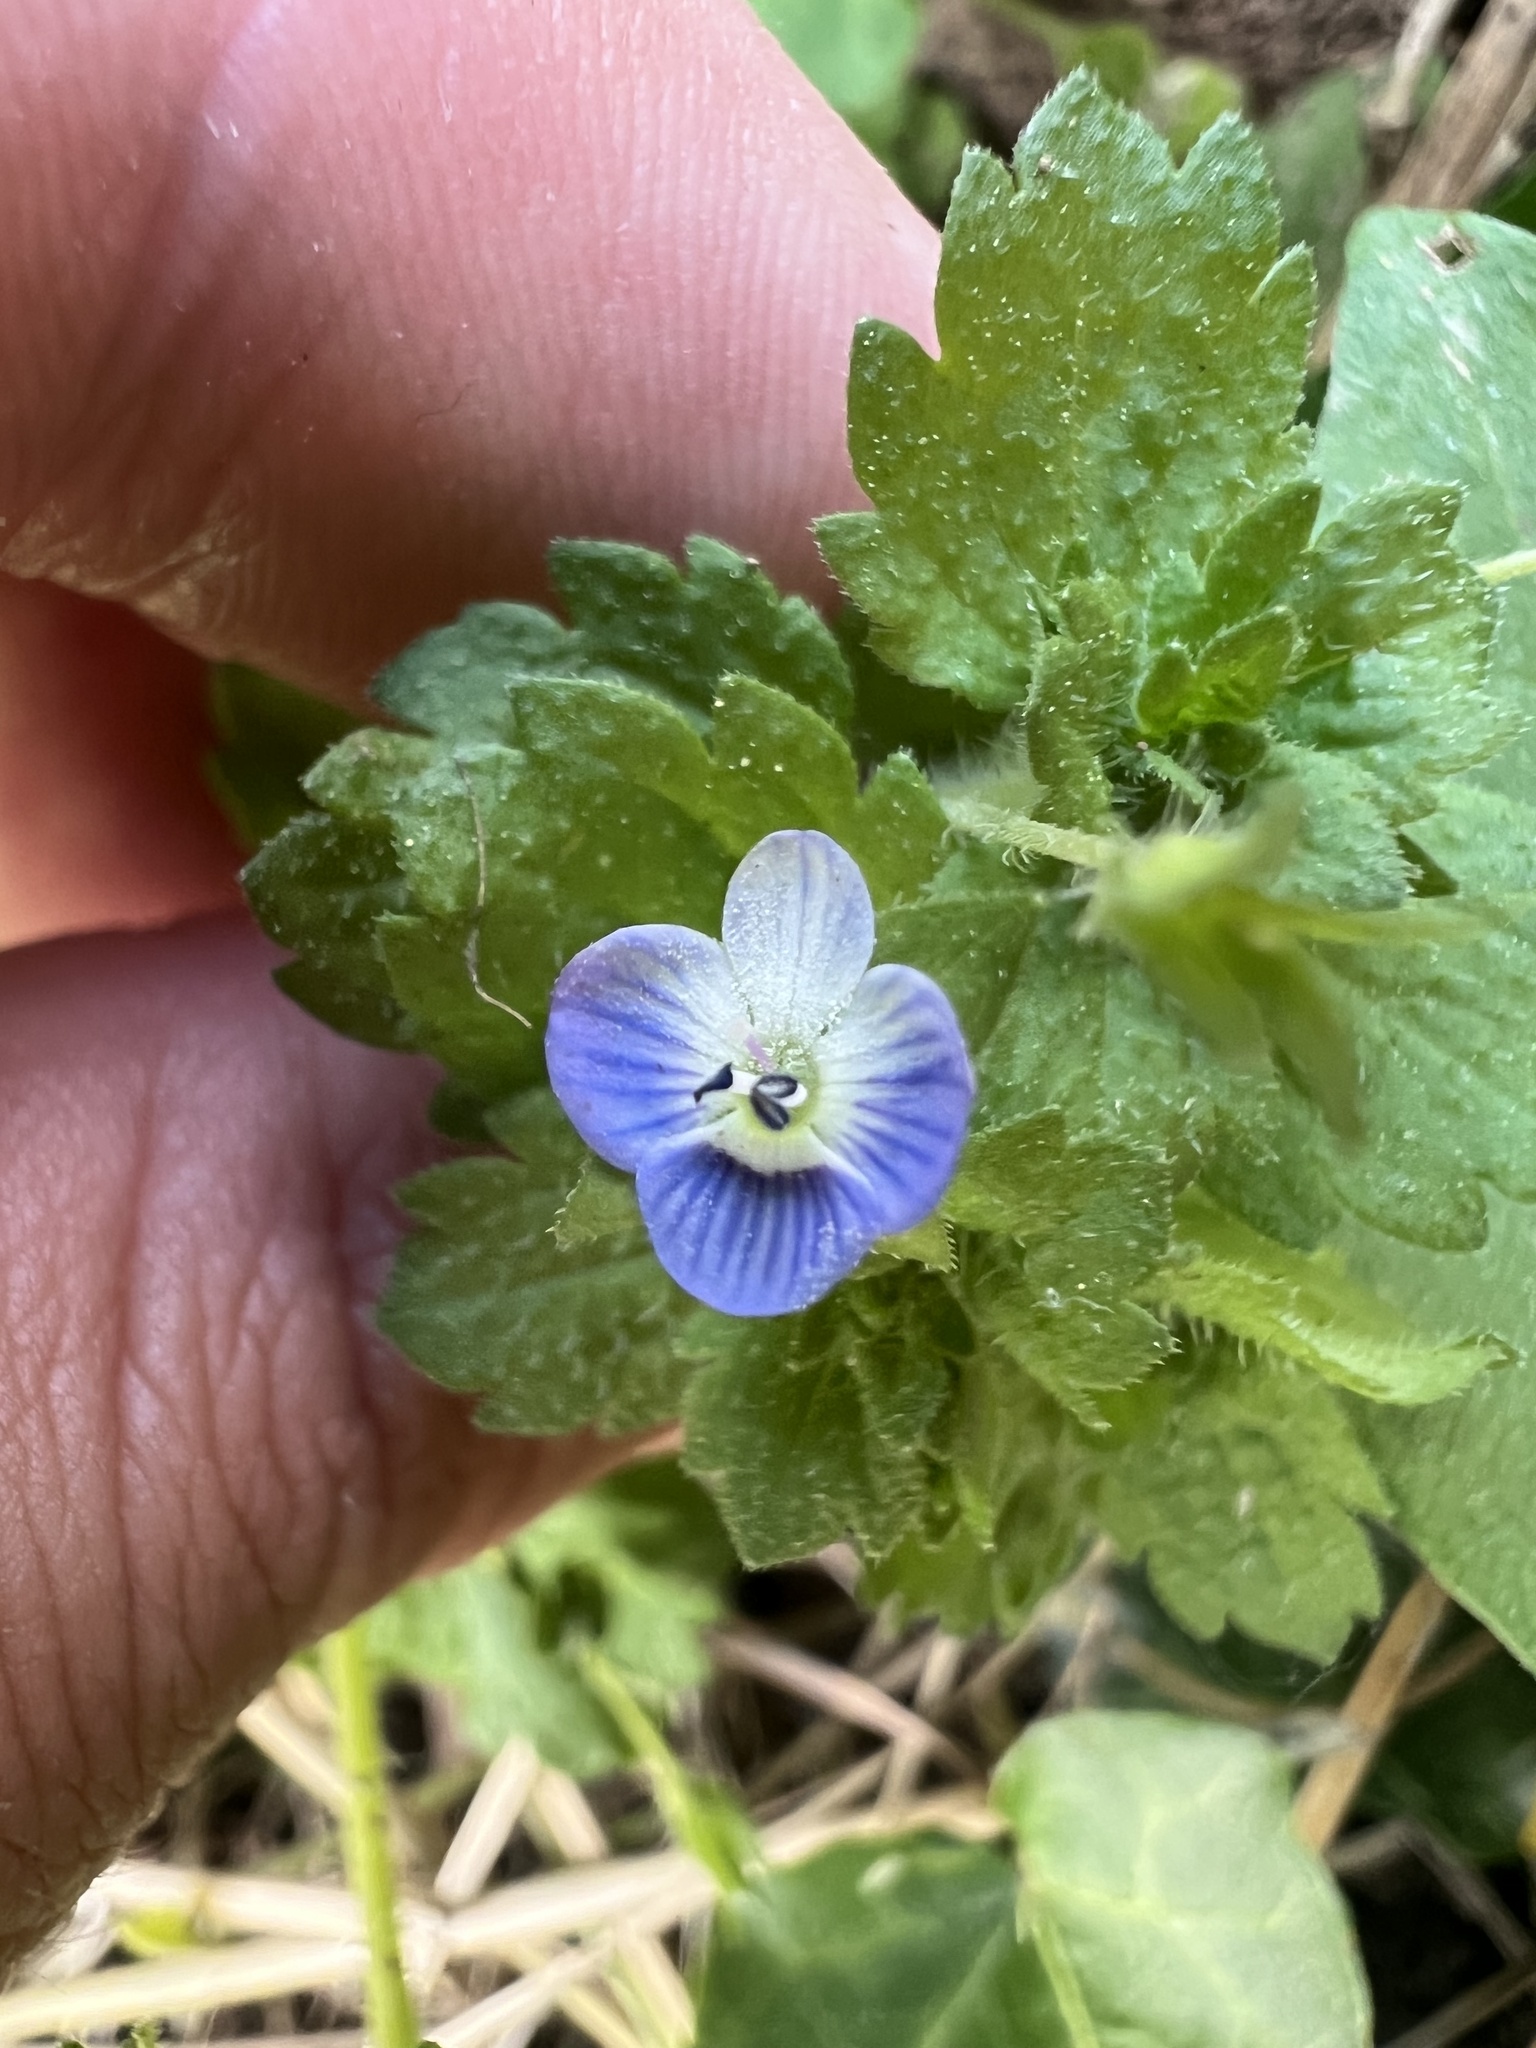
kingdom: Plantae
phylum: Tracheophyta
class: Magnoliopsida
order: Lamiales
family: Plantaginaceae
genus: Veronica
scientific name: Veronica persica
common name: Common field-speedwell
